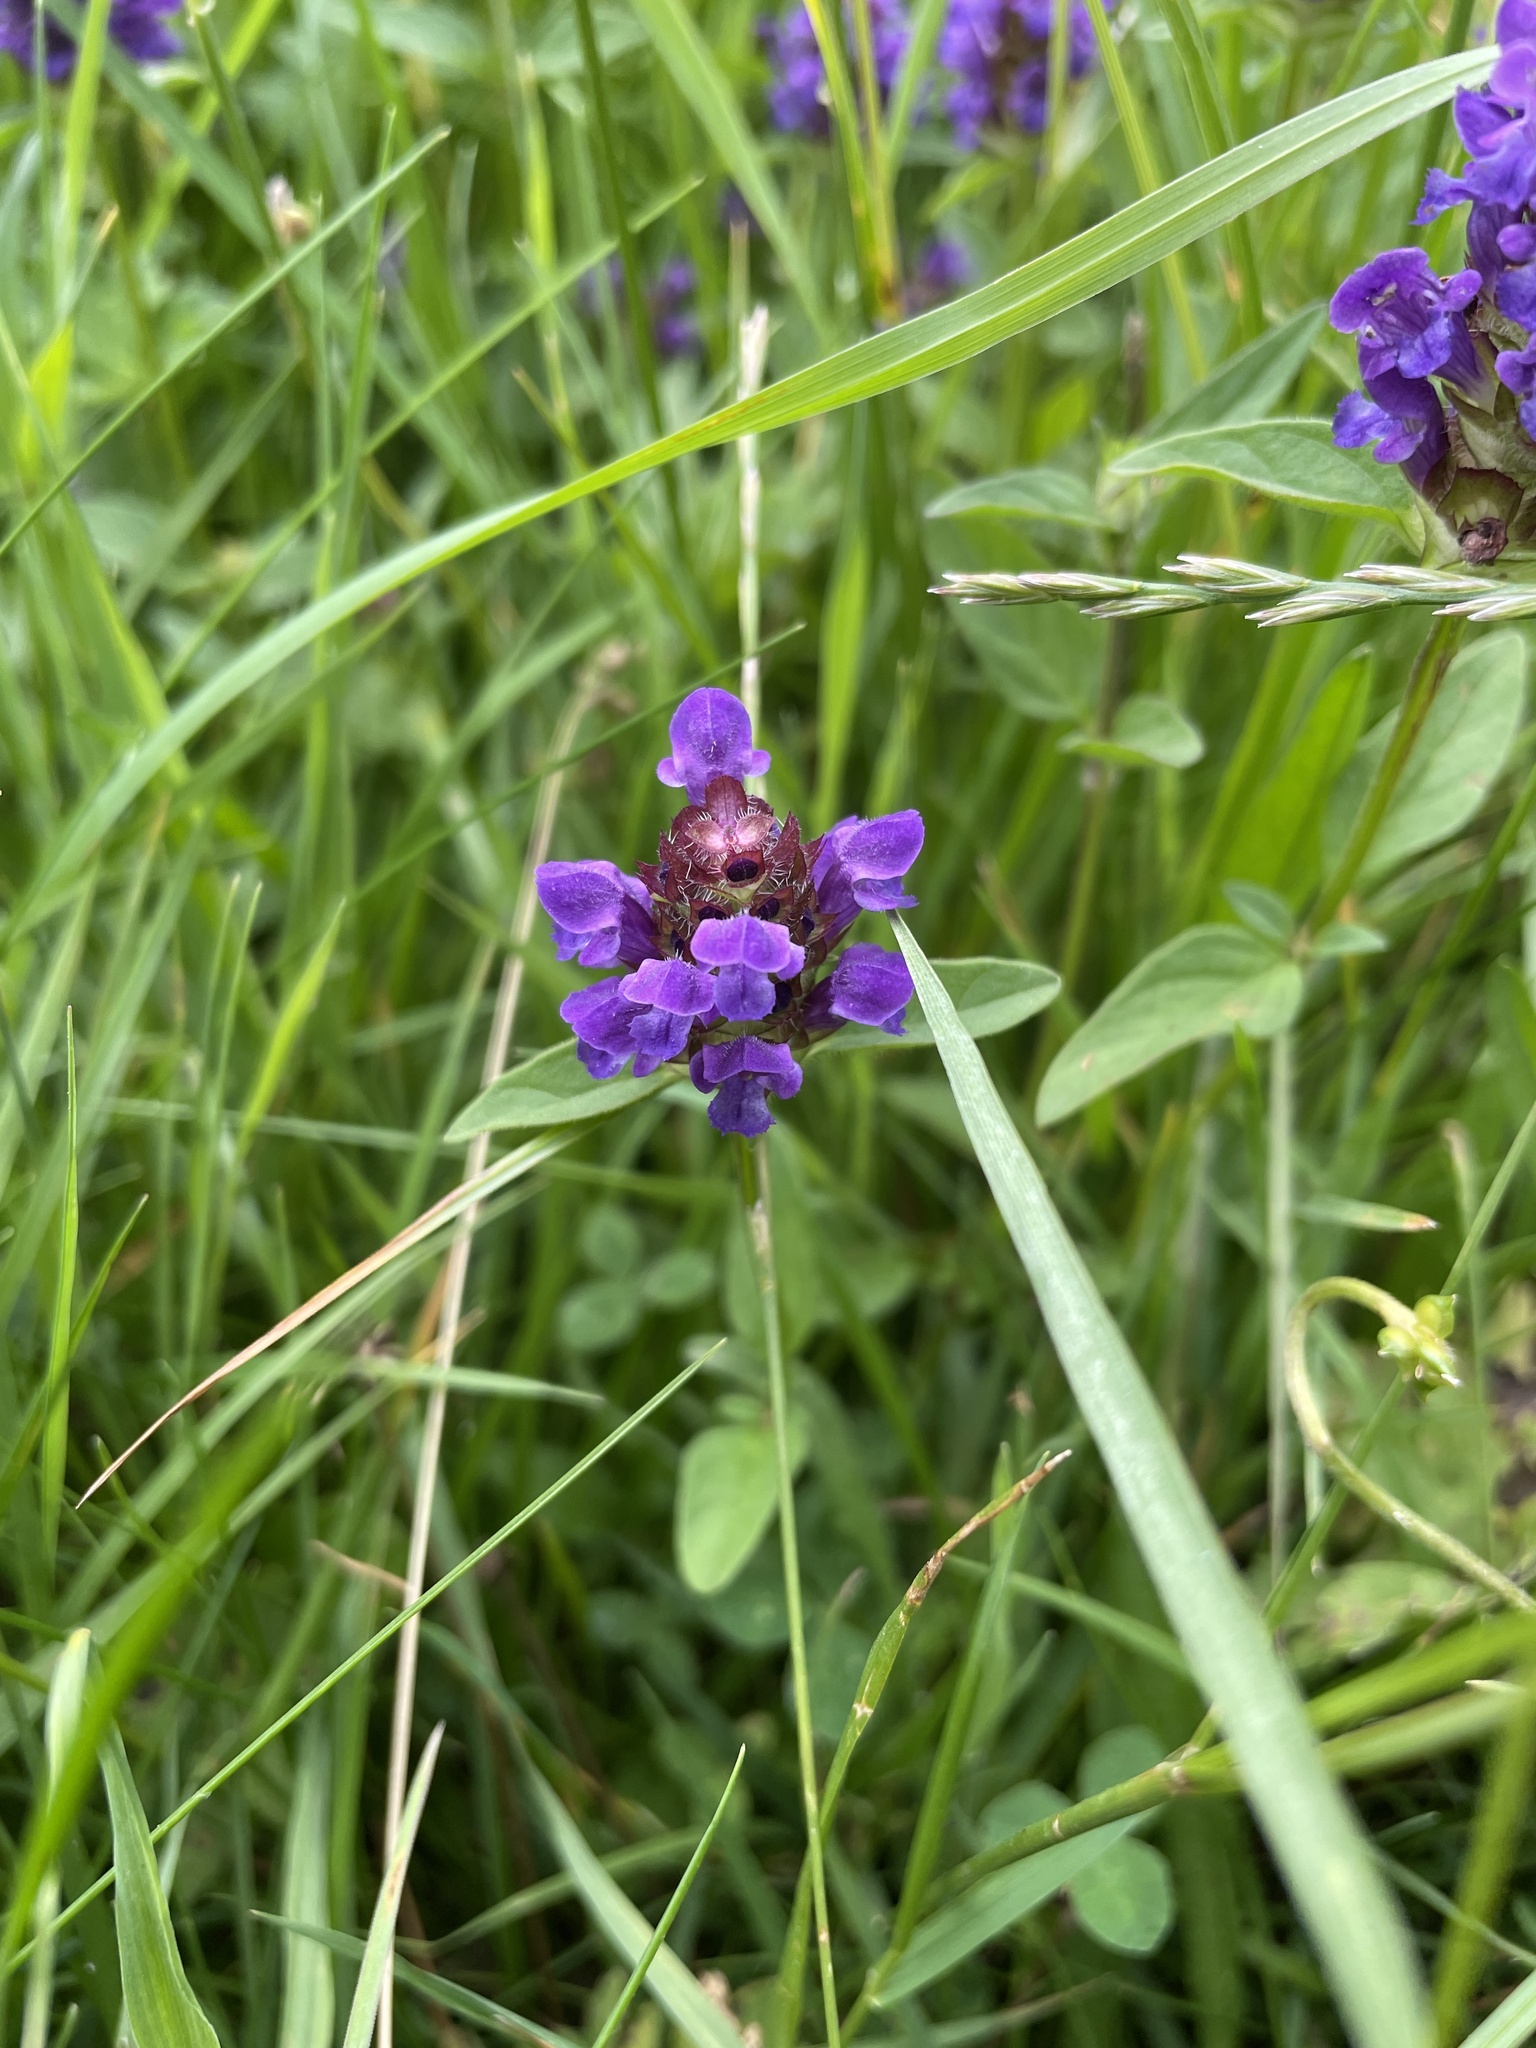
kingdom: Plantae
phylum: Tracheophyta
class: Magnoliopsida
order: Lamiales
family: Lamiaceae
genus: Prunella
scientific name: Prunella vulgaris
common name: Heal-all
